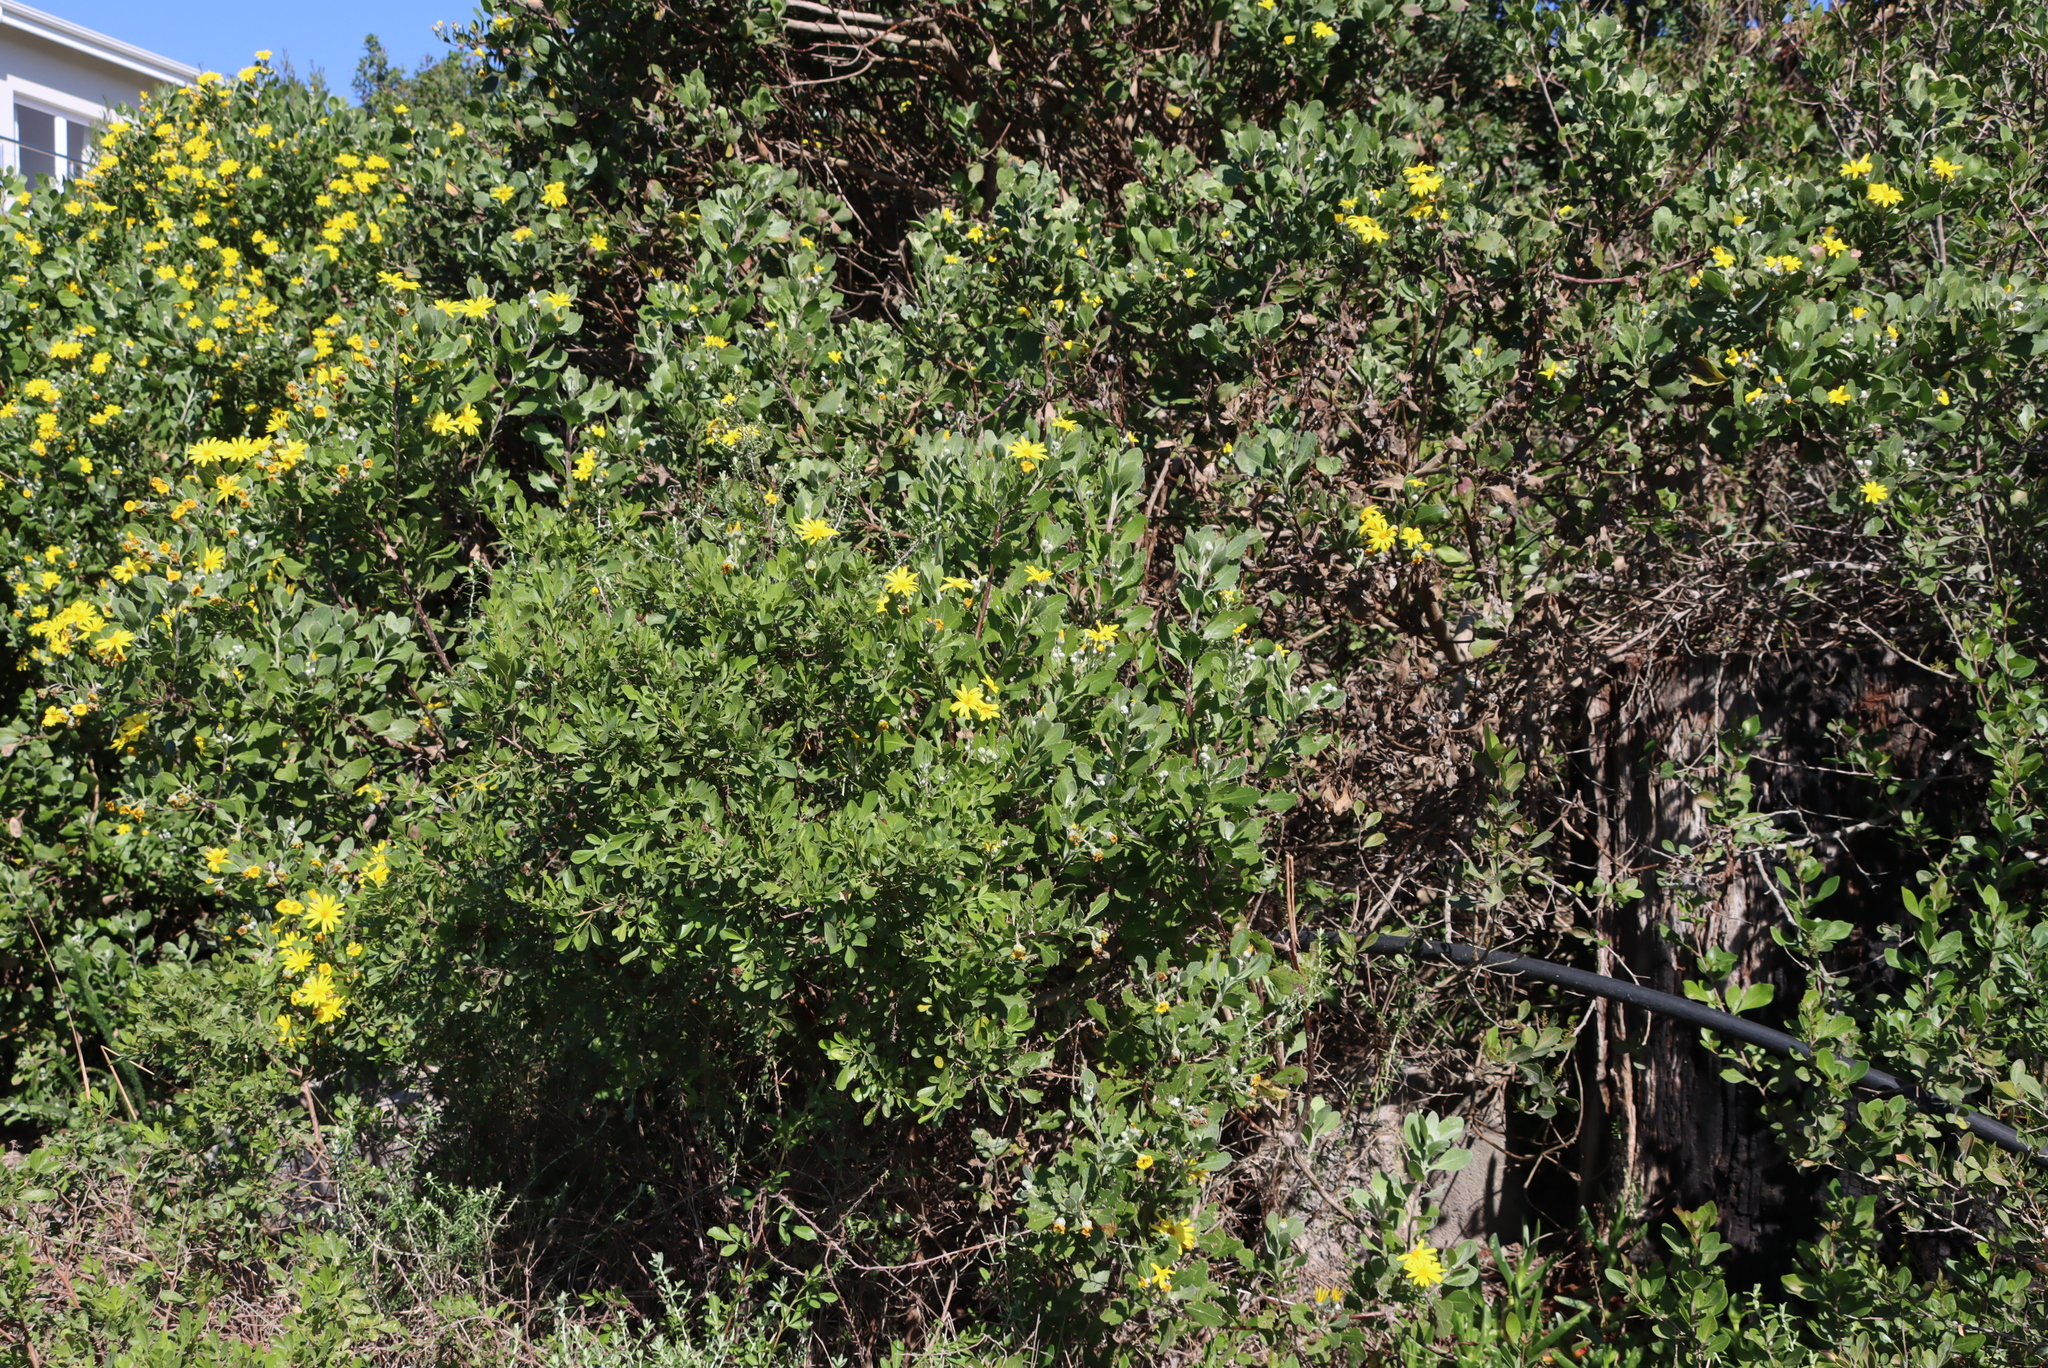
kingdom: Plantae
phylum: Tracheophyta
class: Magnoliopsida
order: Asterales
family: Asteraceae
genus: Osteospermum
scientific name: Osteospermum moniliferum
